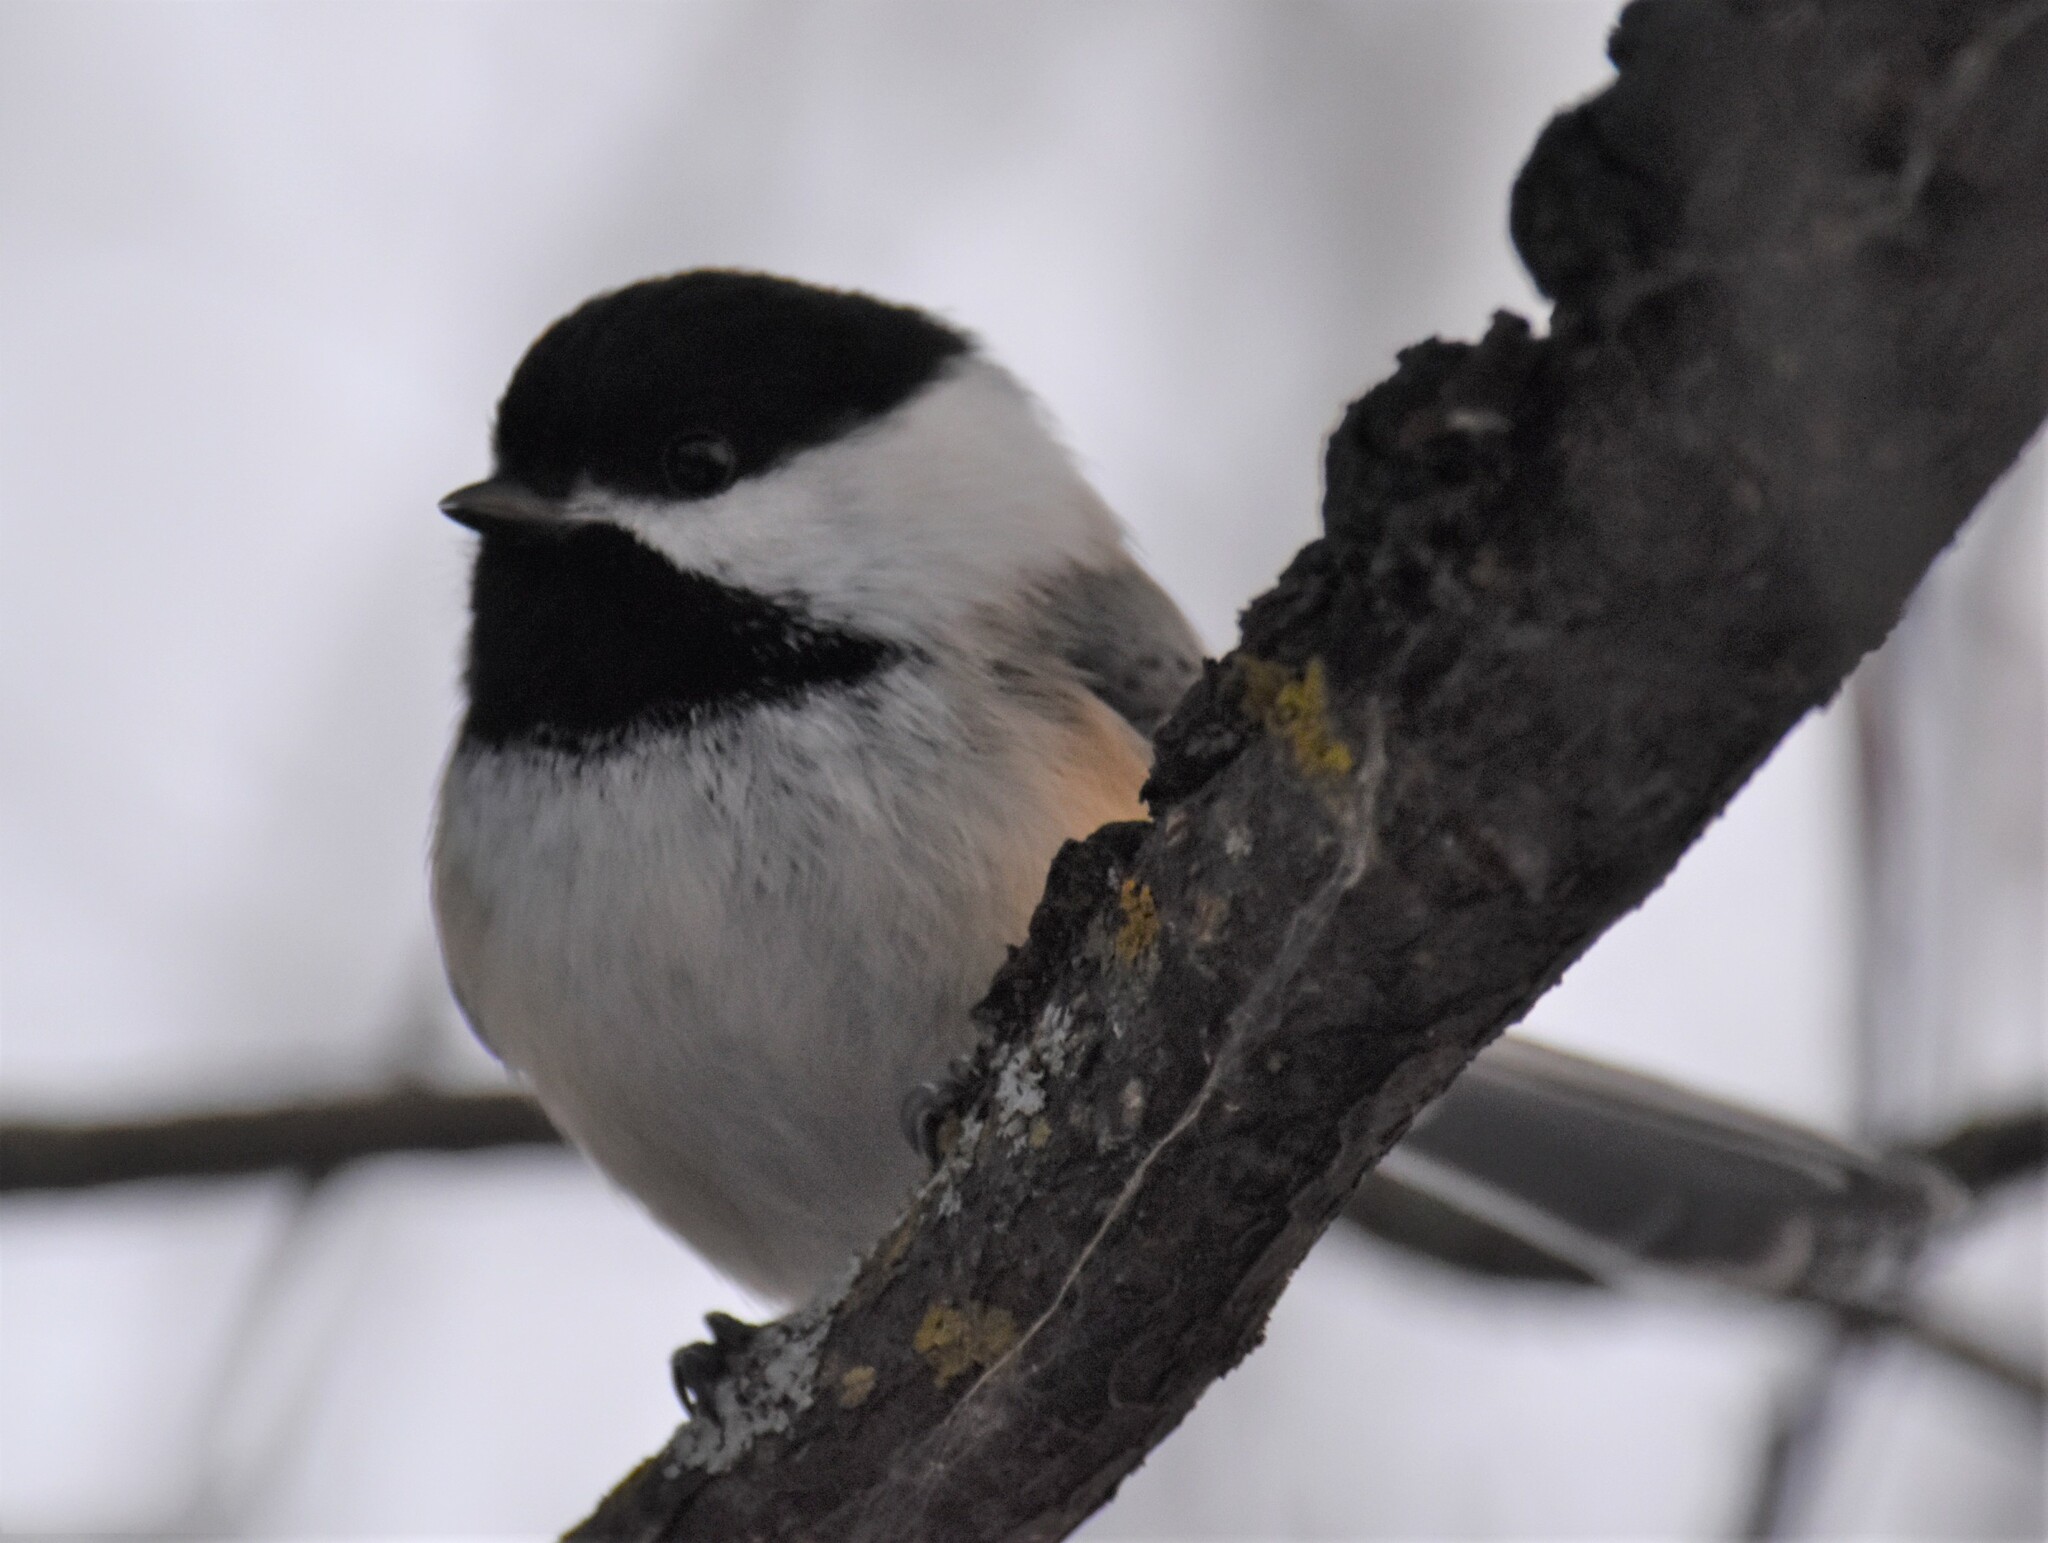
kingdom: Animalia
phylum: Chordata
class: Aves
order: Passeriformes
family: Paridae
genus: Poecile
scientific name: Poecile atricapillus
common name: Black-capped chickadee
